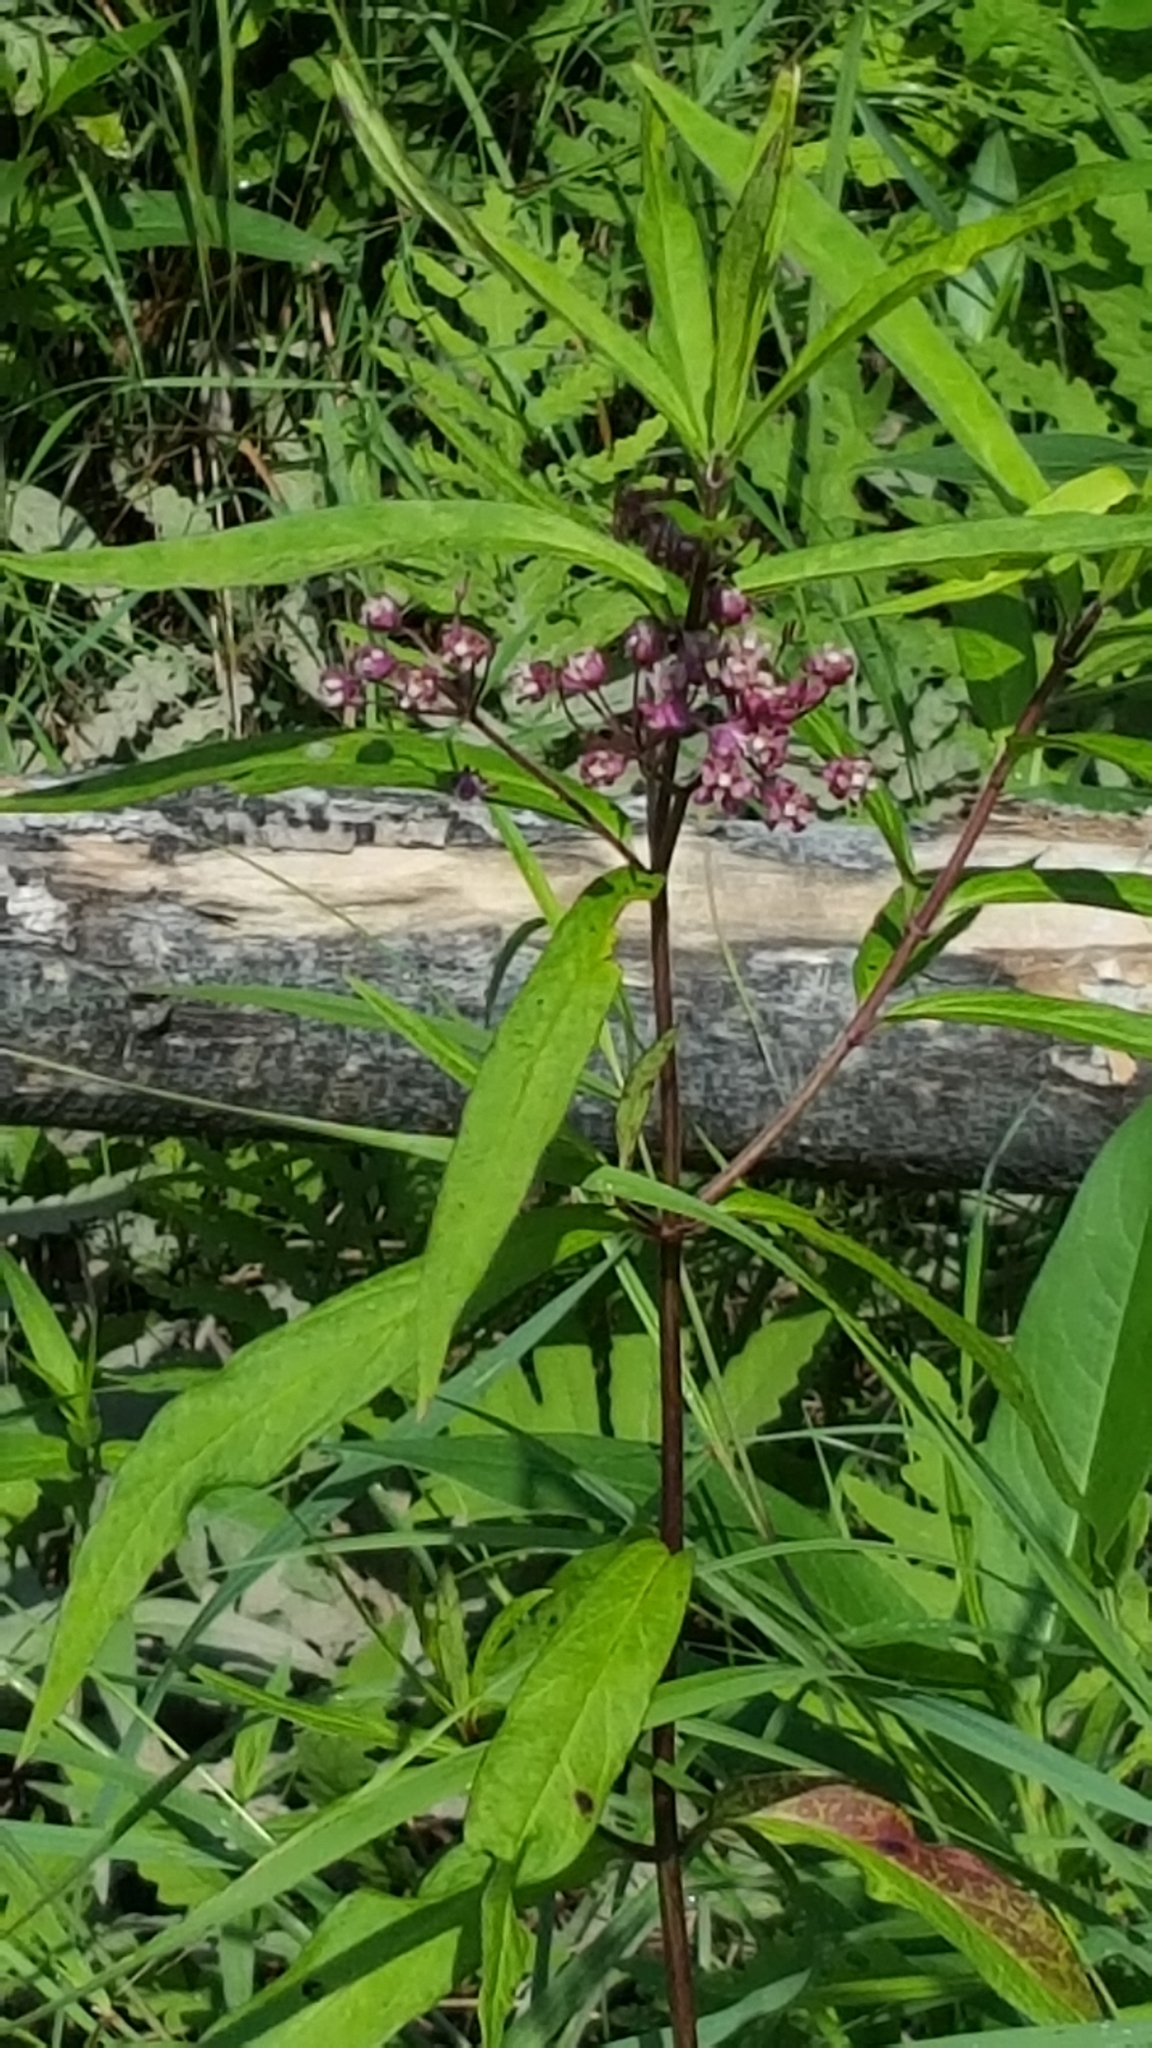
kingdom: Plantae
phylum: Tracheophyta
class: Magnoliopsida
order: Gentianales
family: Apocynaceae
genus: Asclepias
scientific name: Asclepias incarnata
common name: Swamp milkweed
